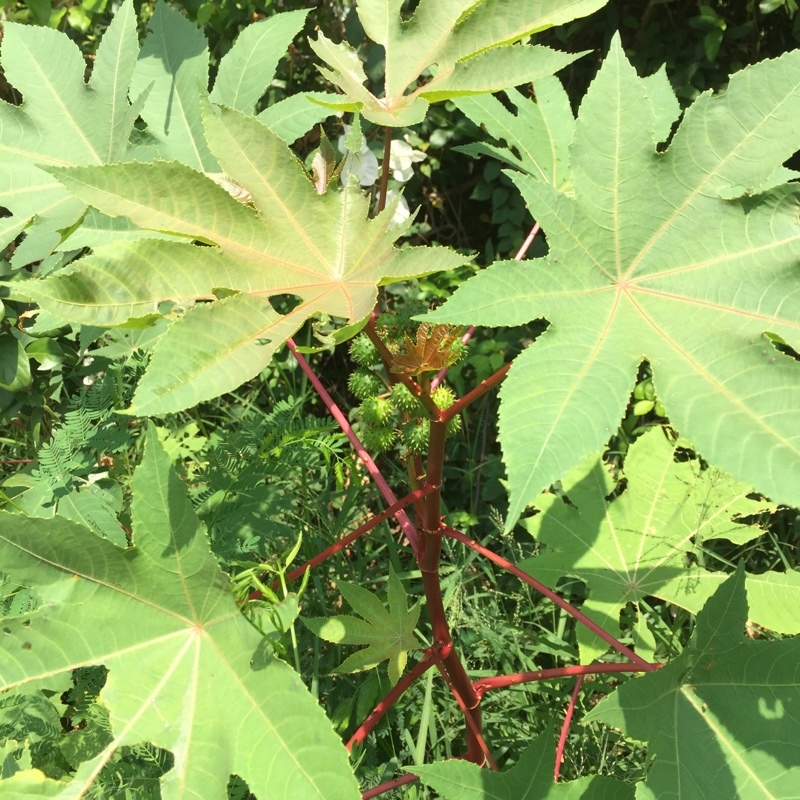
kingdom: Plantae
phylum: Tracheophyta
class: Magnoliopsida
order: Malpighiales
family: Euphorbiaceae
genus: Ricinus
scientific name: Ricinus communis
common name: Castor-oil-plant
